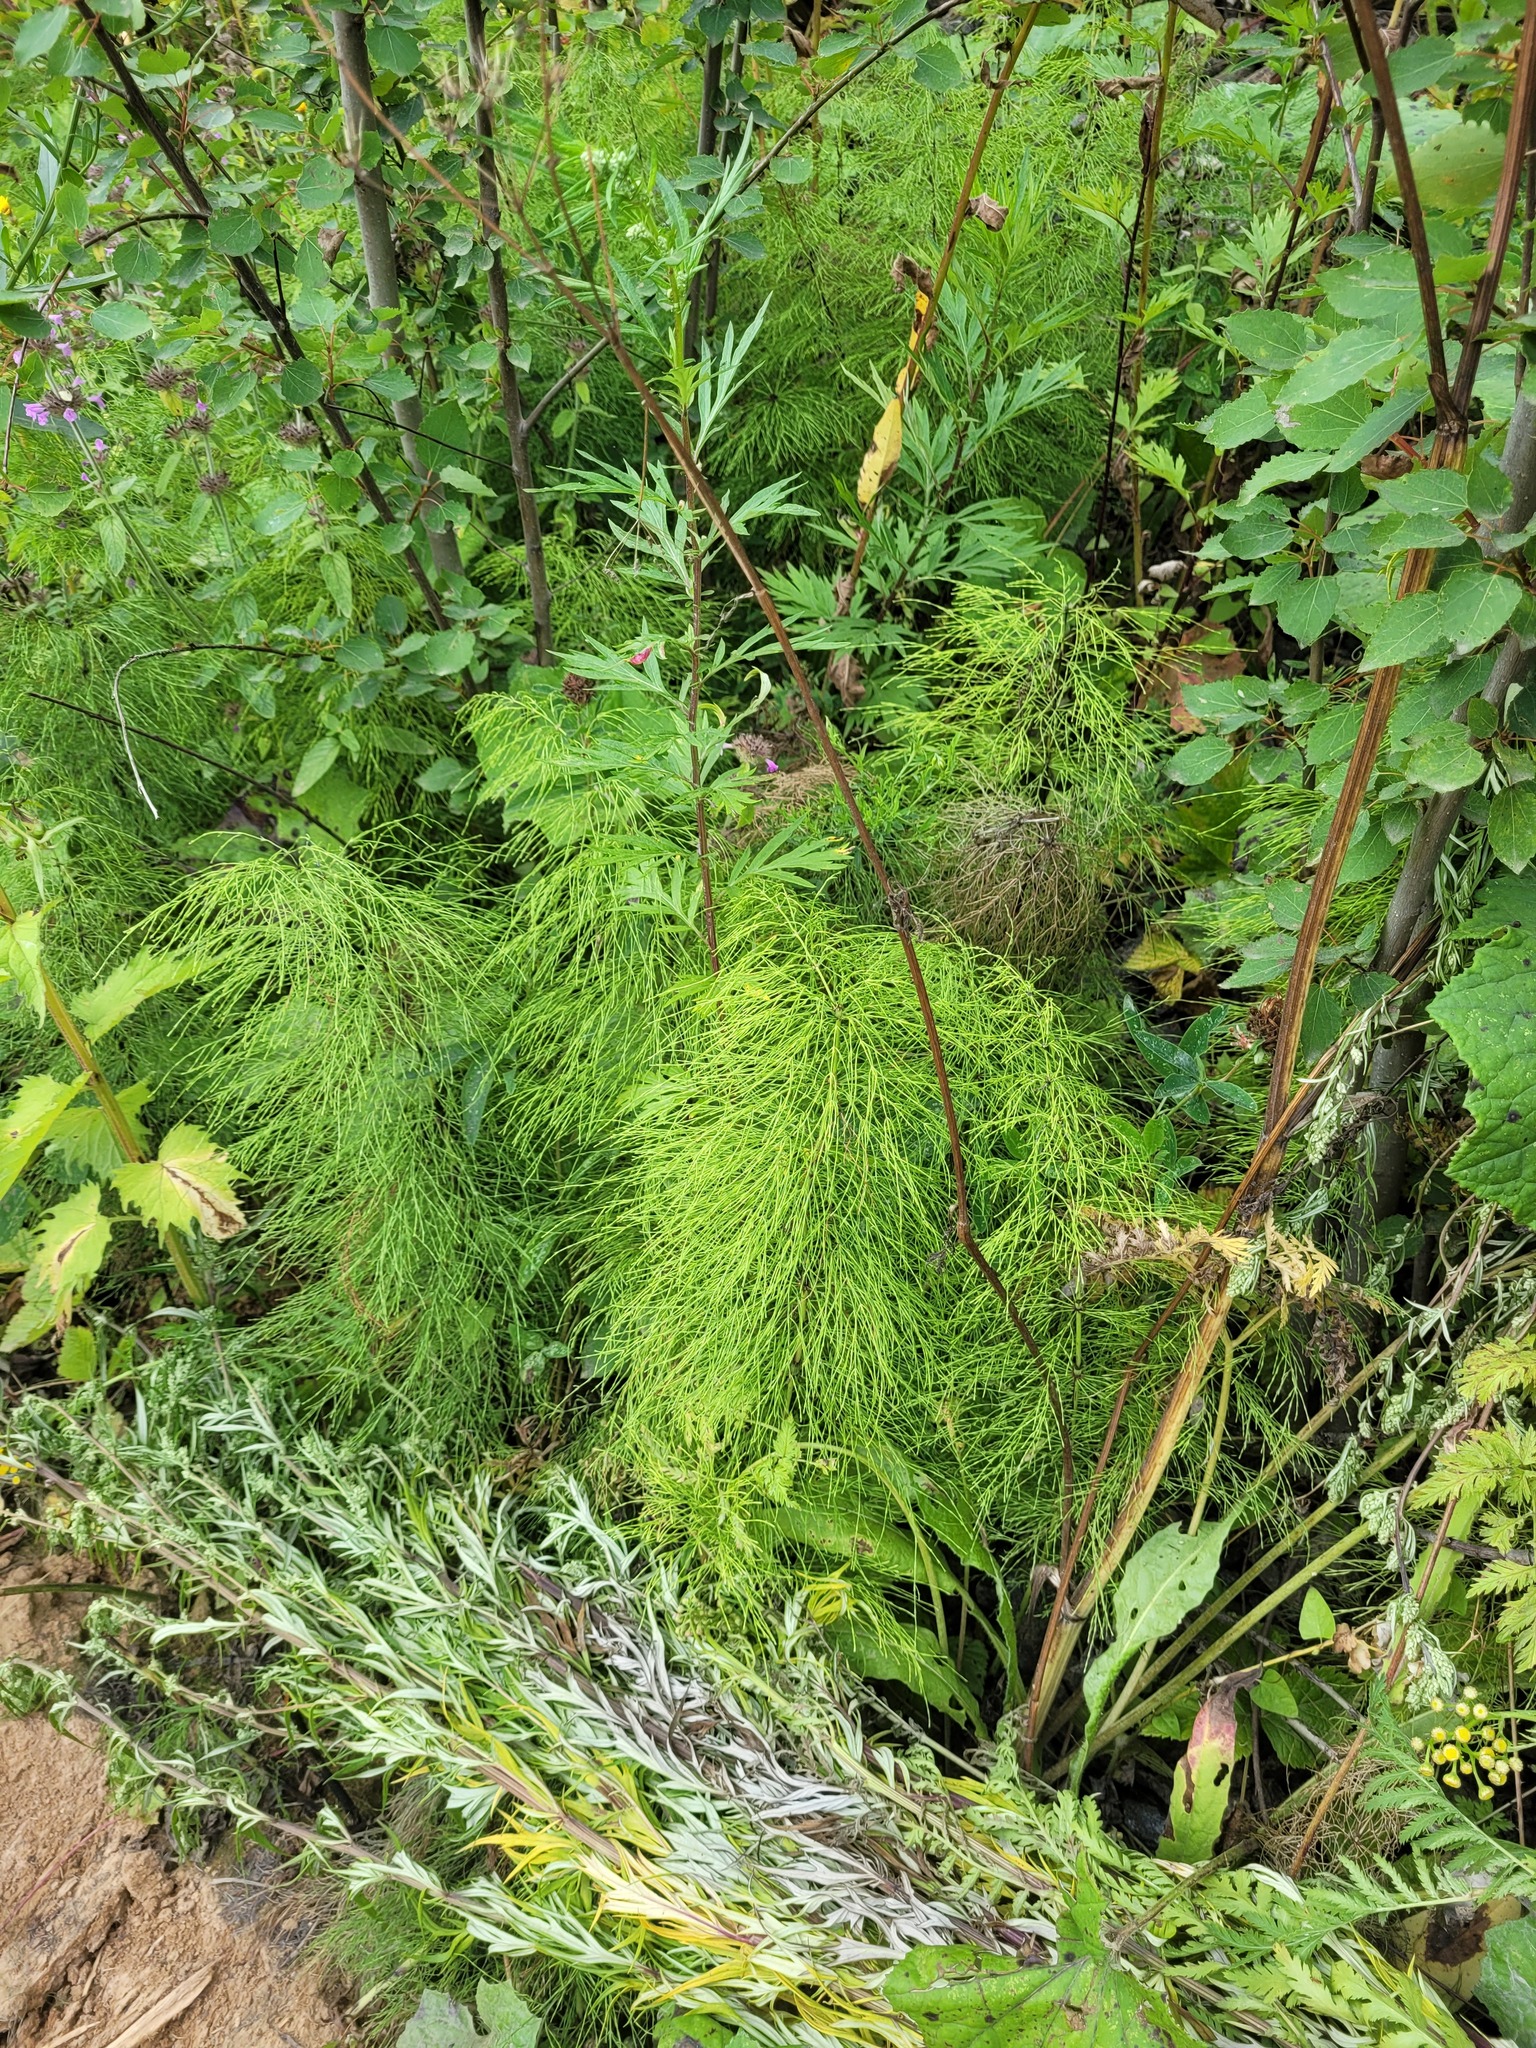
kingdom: Plantae
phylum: Tracheophyta
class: Polypodiopsida
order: Equisetales
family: Equisetaceae
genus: Equisetum
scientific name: Equisetum sylvaticum
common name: Wood horsetail
